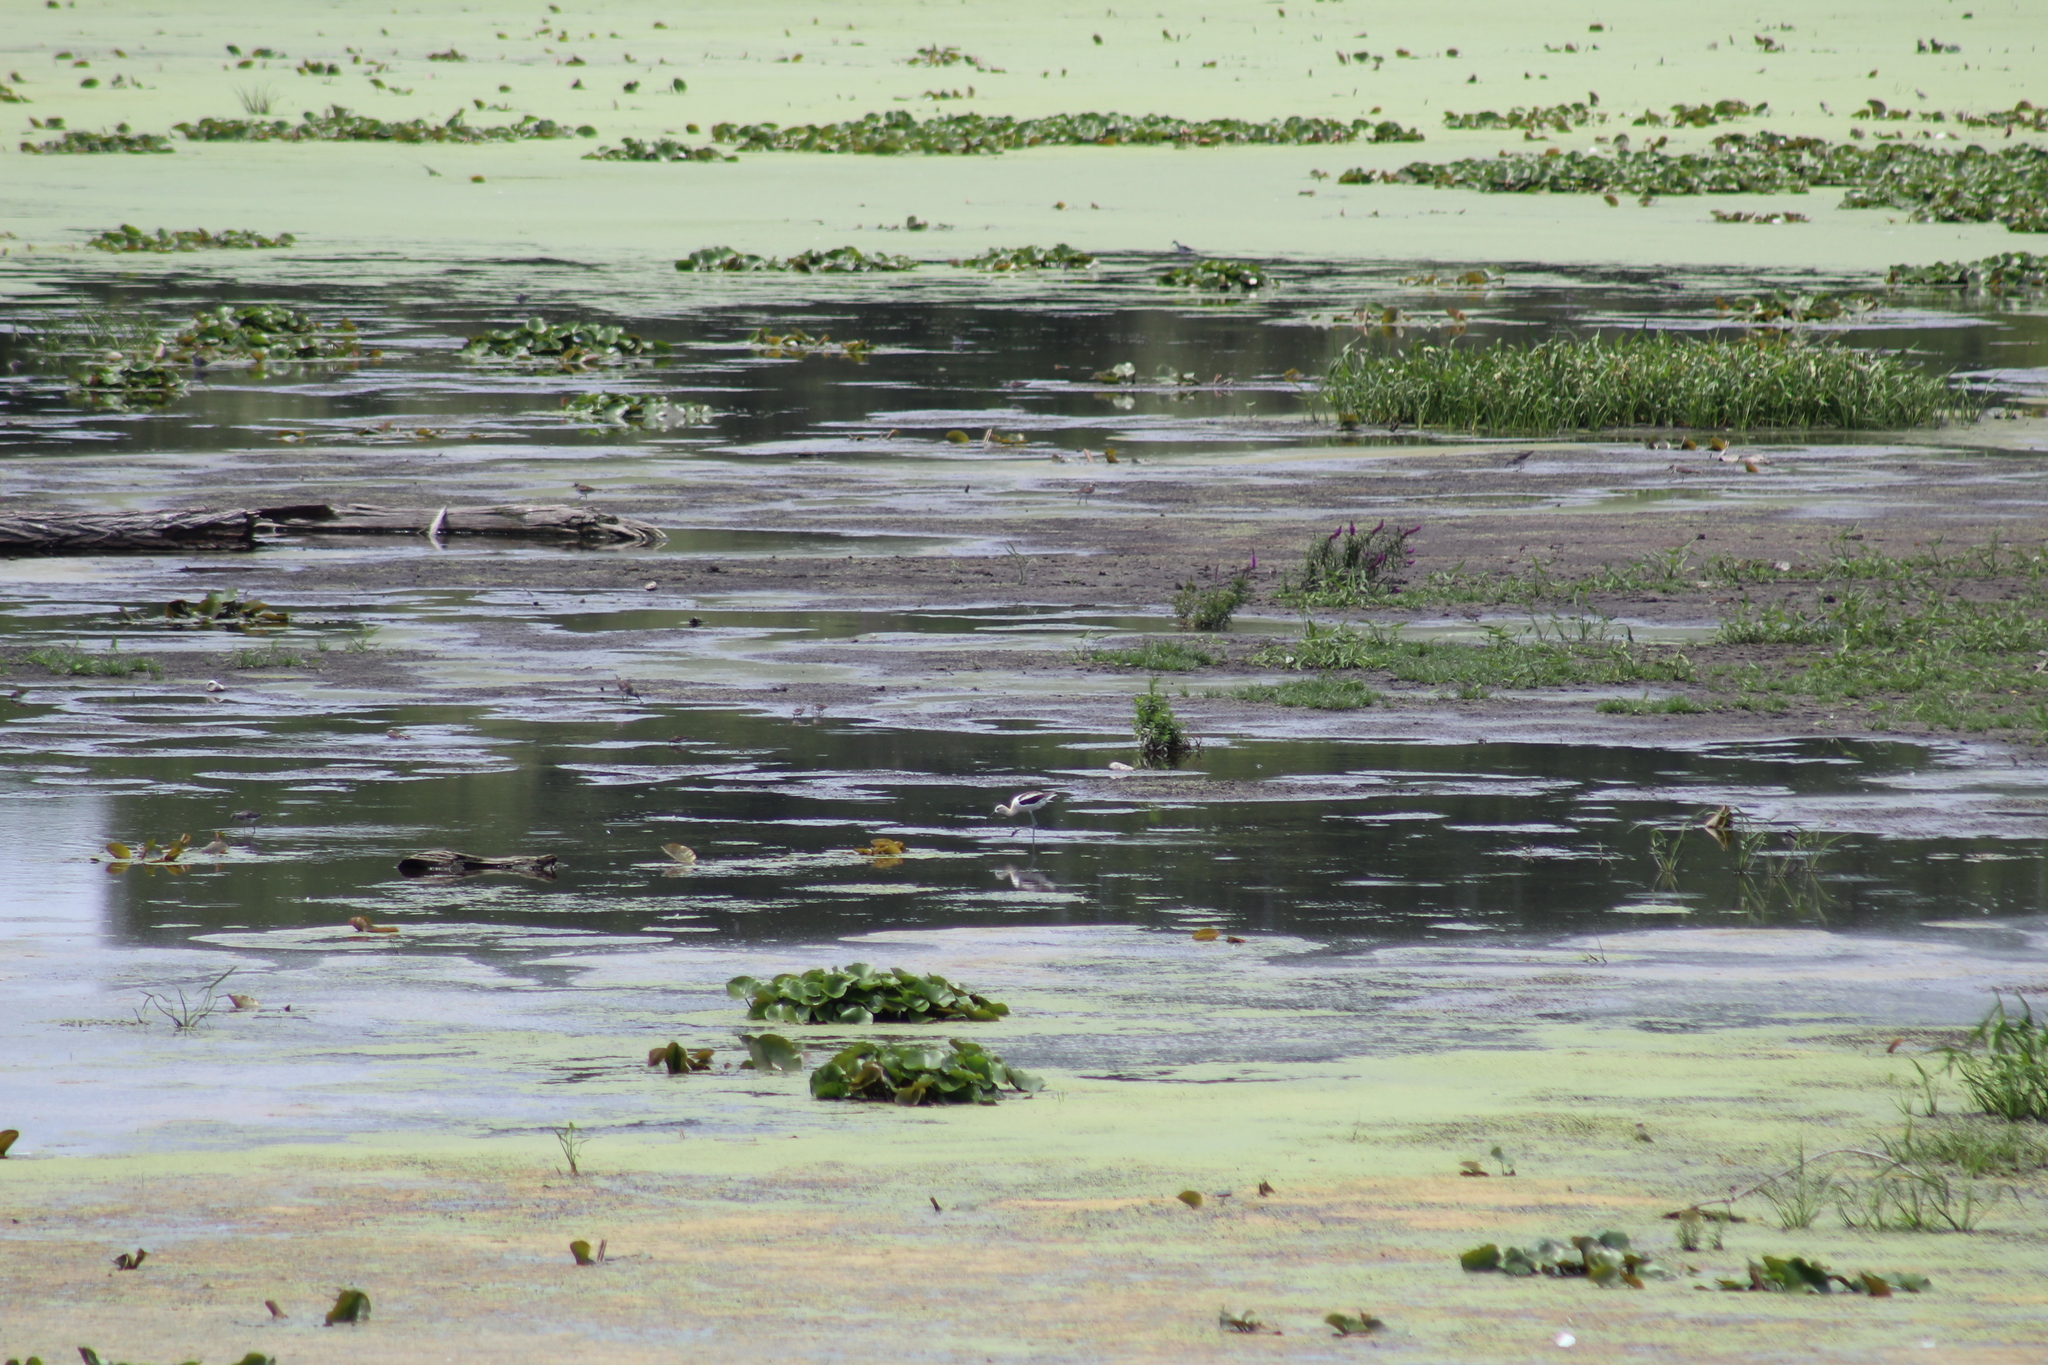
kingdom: Animalia
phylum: Chordata
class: Aves
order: Charadriiformes
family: Recurvirostridae
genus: Recurvirostra
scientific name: Recurvirostra americana
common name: American avocet
